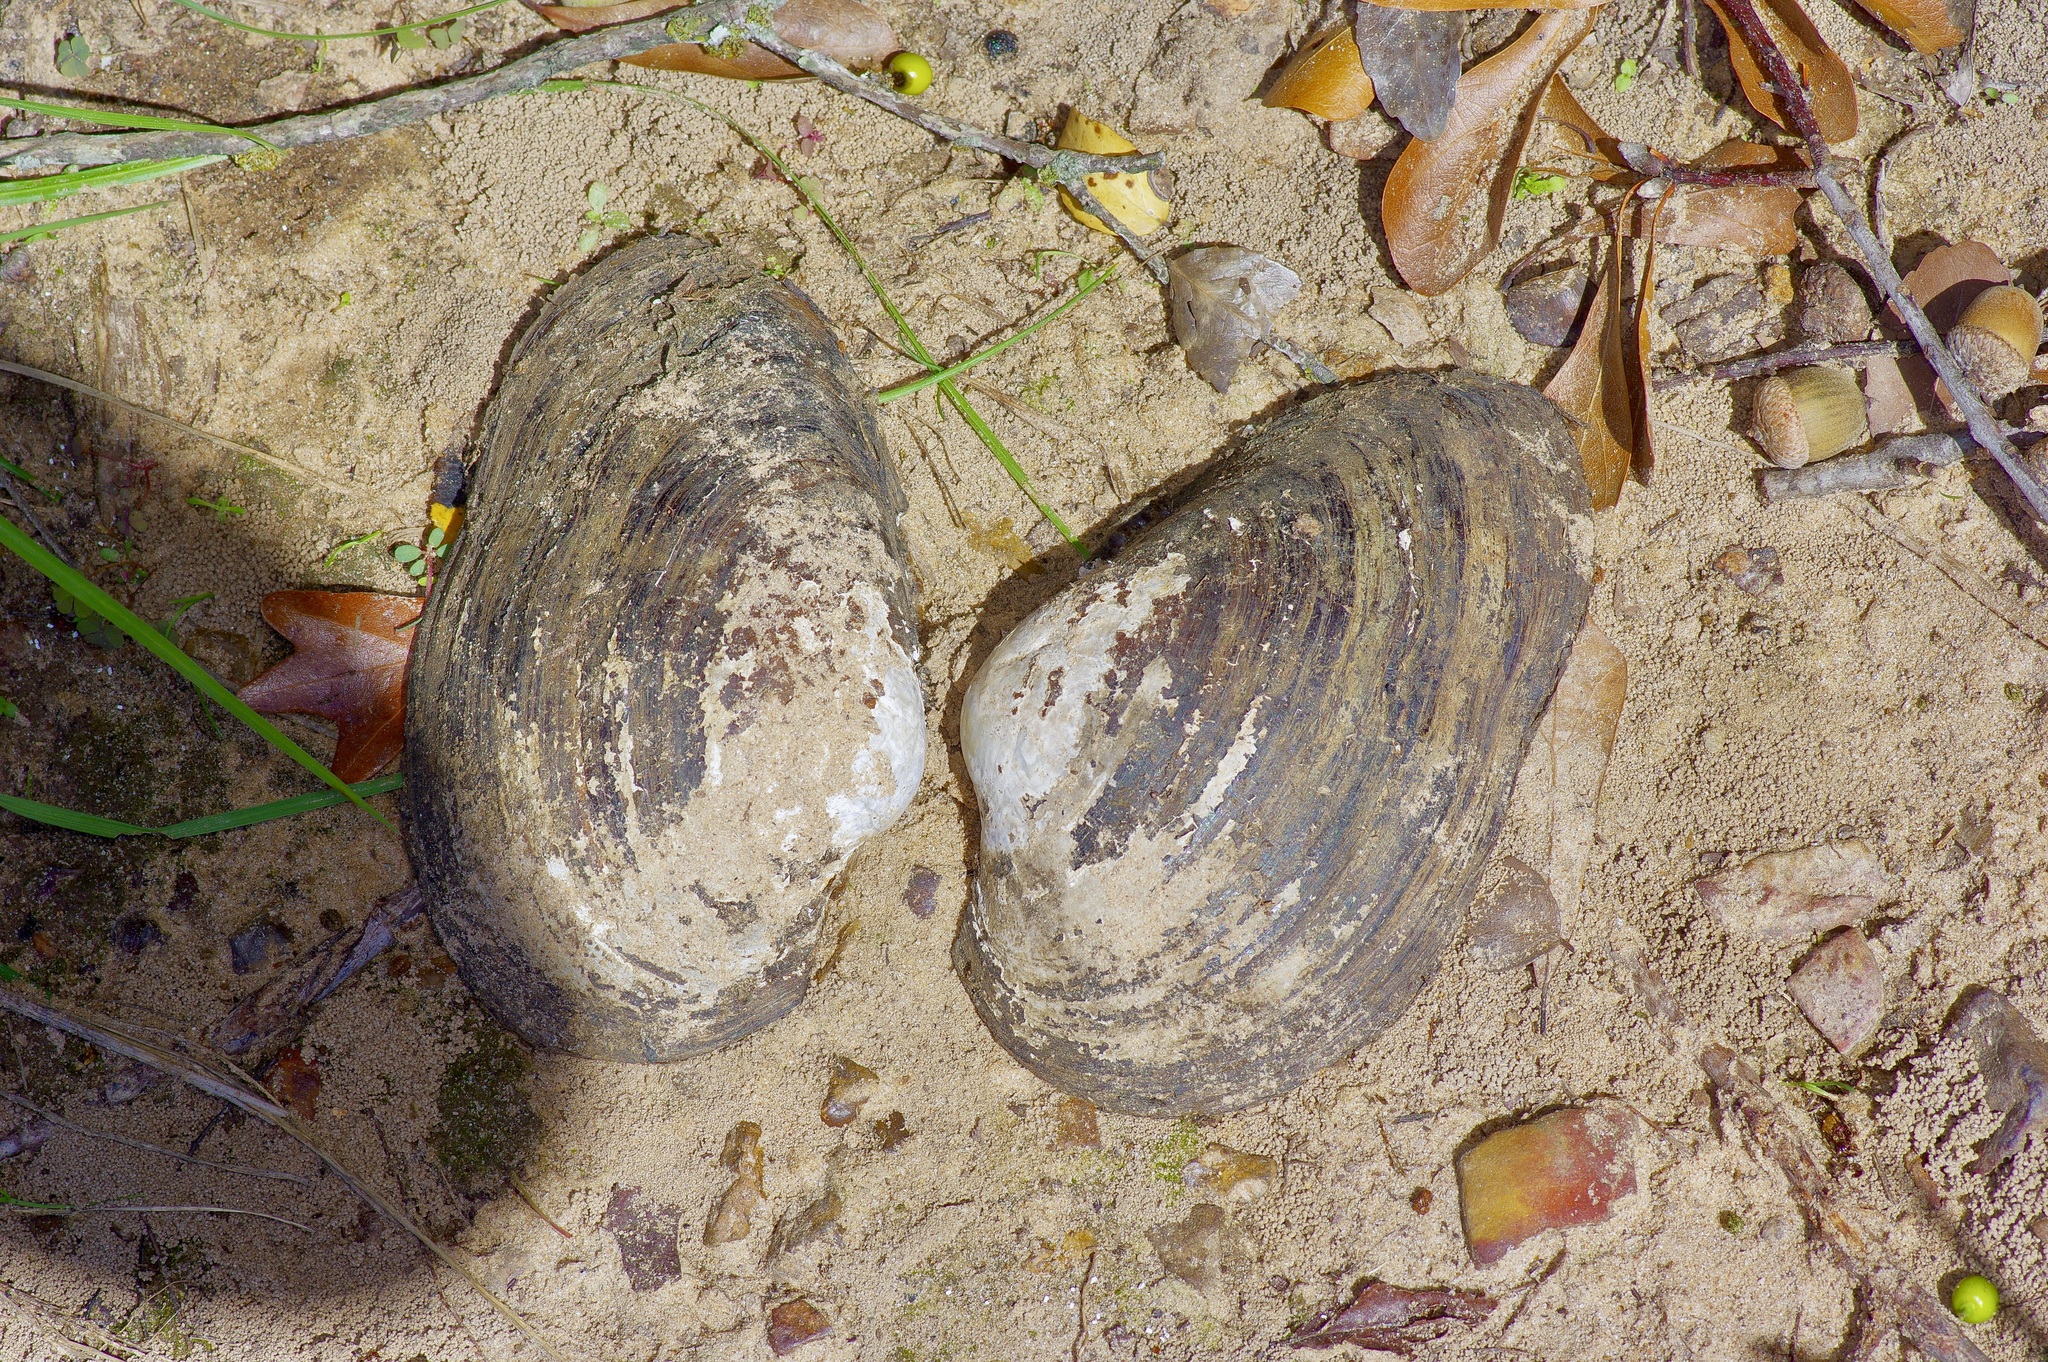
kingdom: Animalia
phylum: Mollusca
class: Bivalvia
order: Unionida
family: Unionidae
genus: Pyganodon
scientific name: Pyganodon grandis
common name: Giant floater
